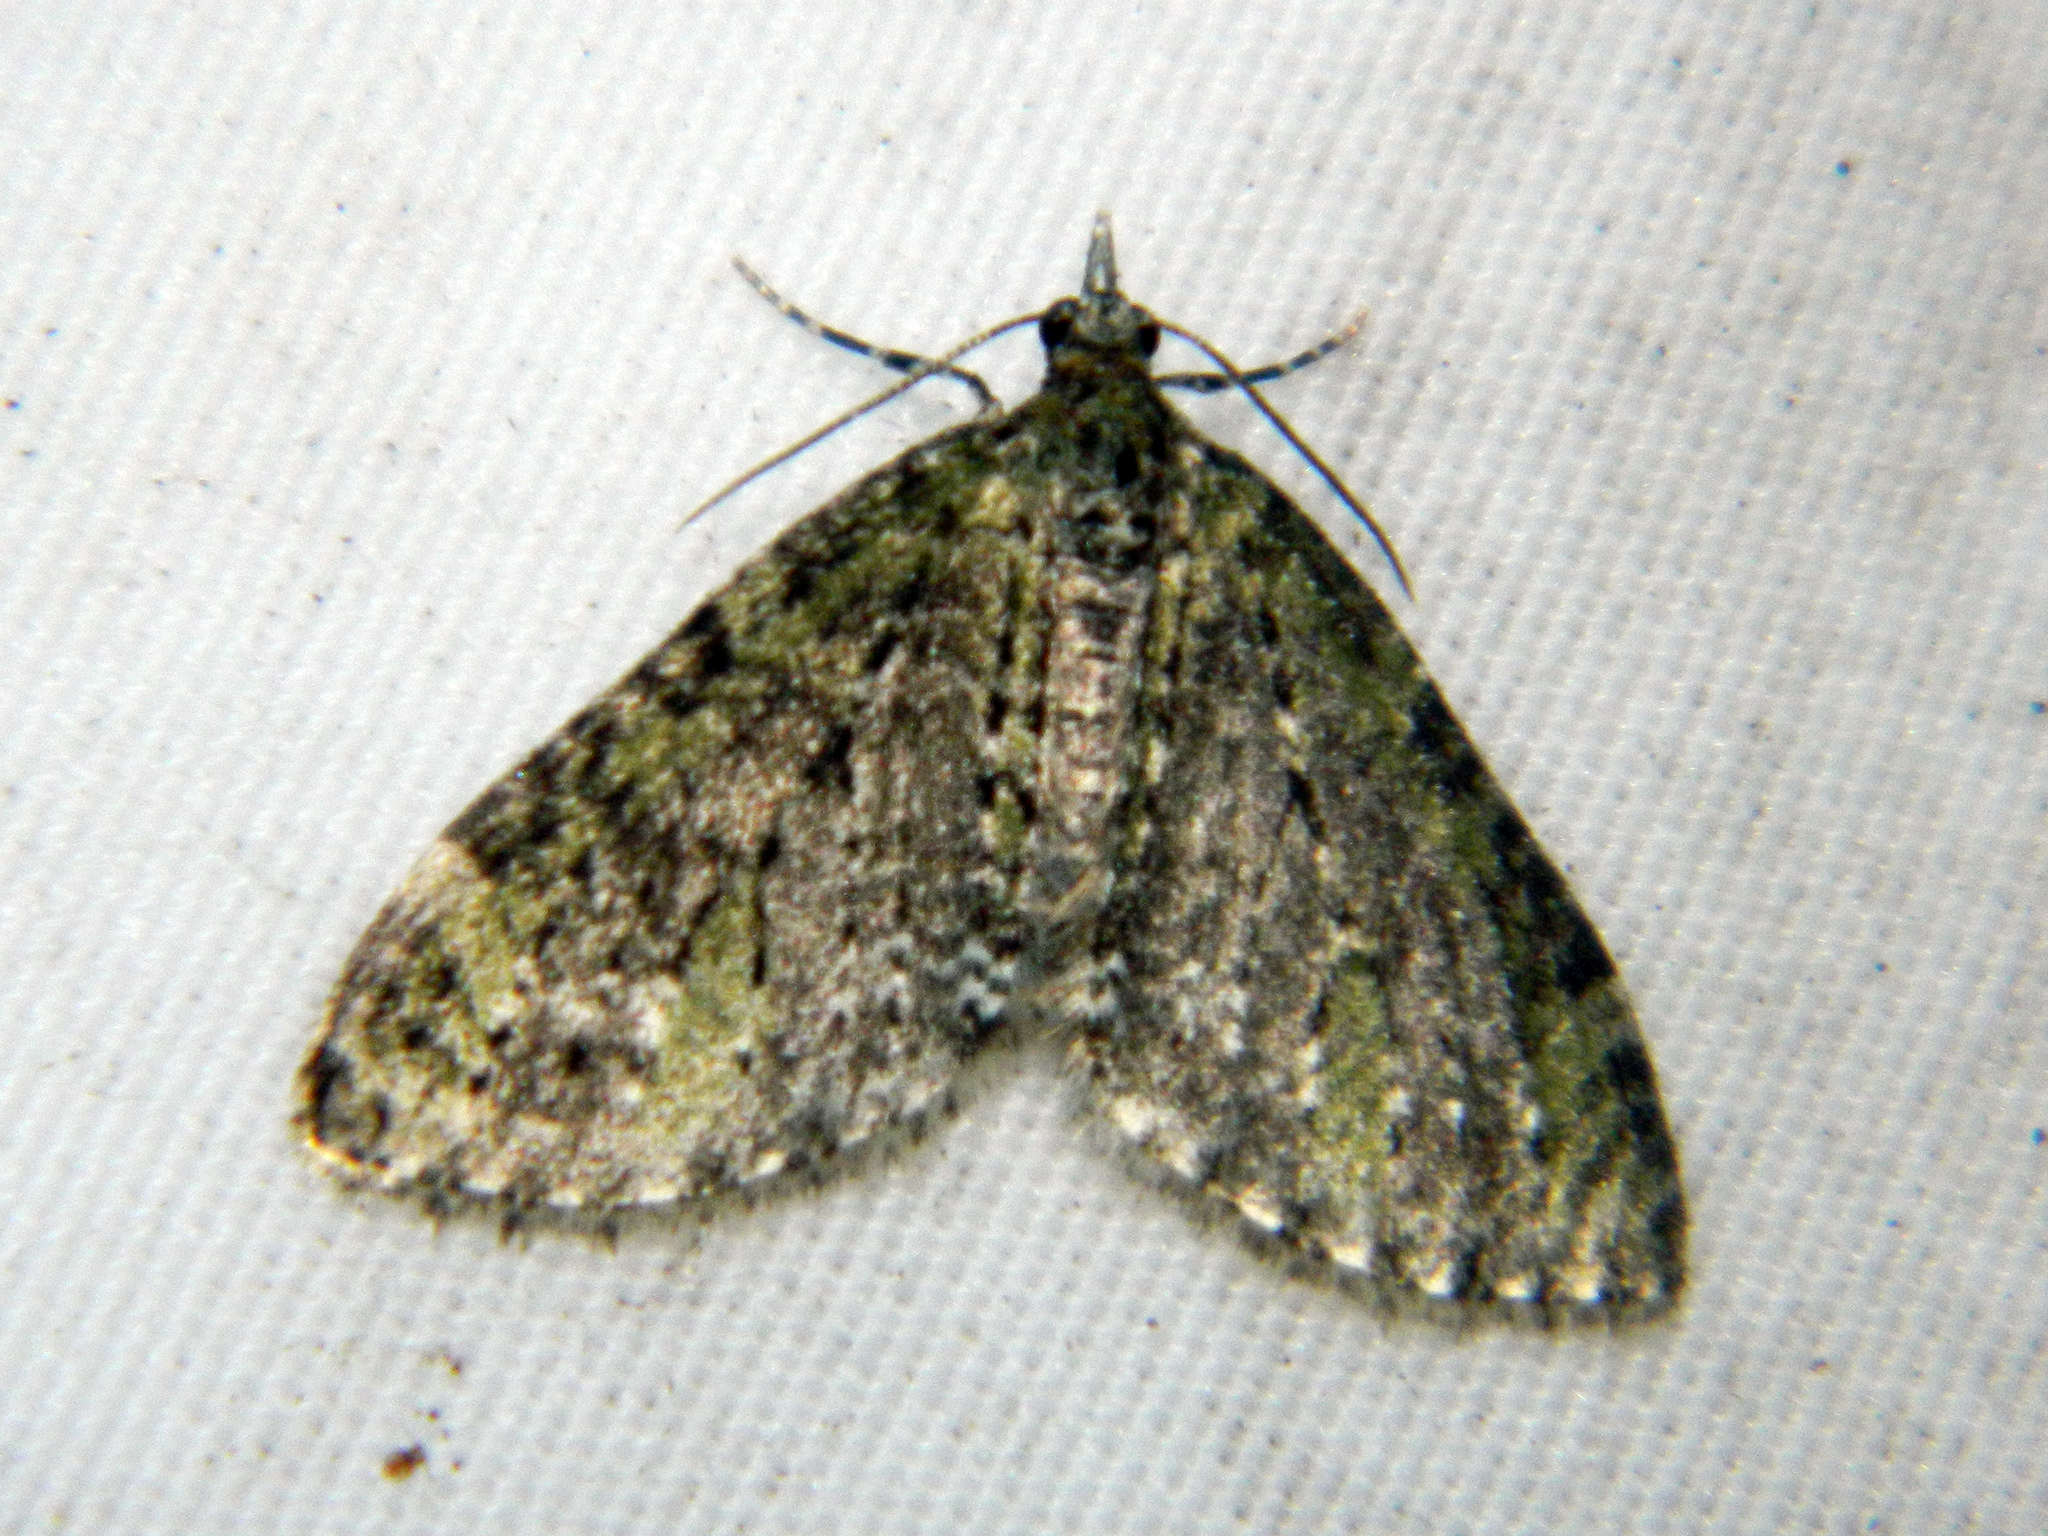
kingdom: Animalia
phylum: Arthropoda
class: Insecta
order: Lepidoptera
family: Geometridae
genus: Acasis
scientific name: Acasis viridata
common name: Olive-and-black carpet moth
